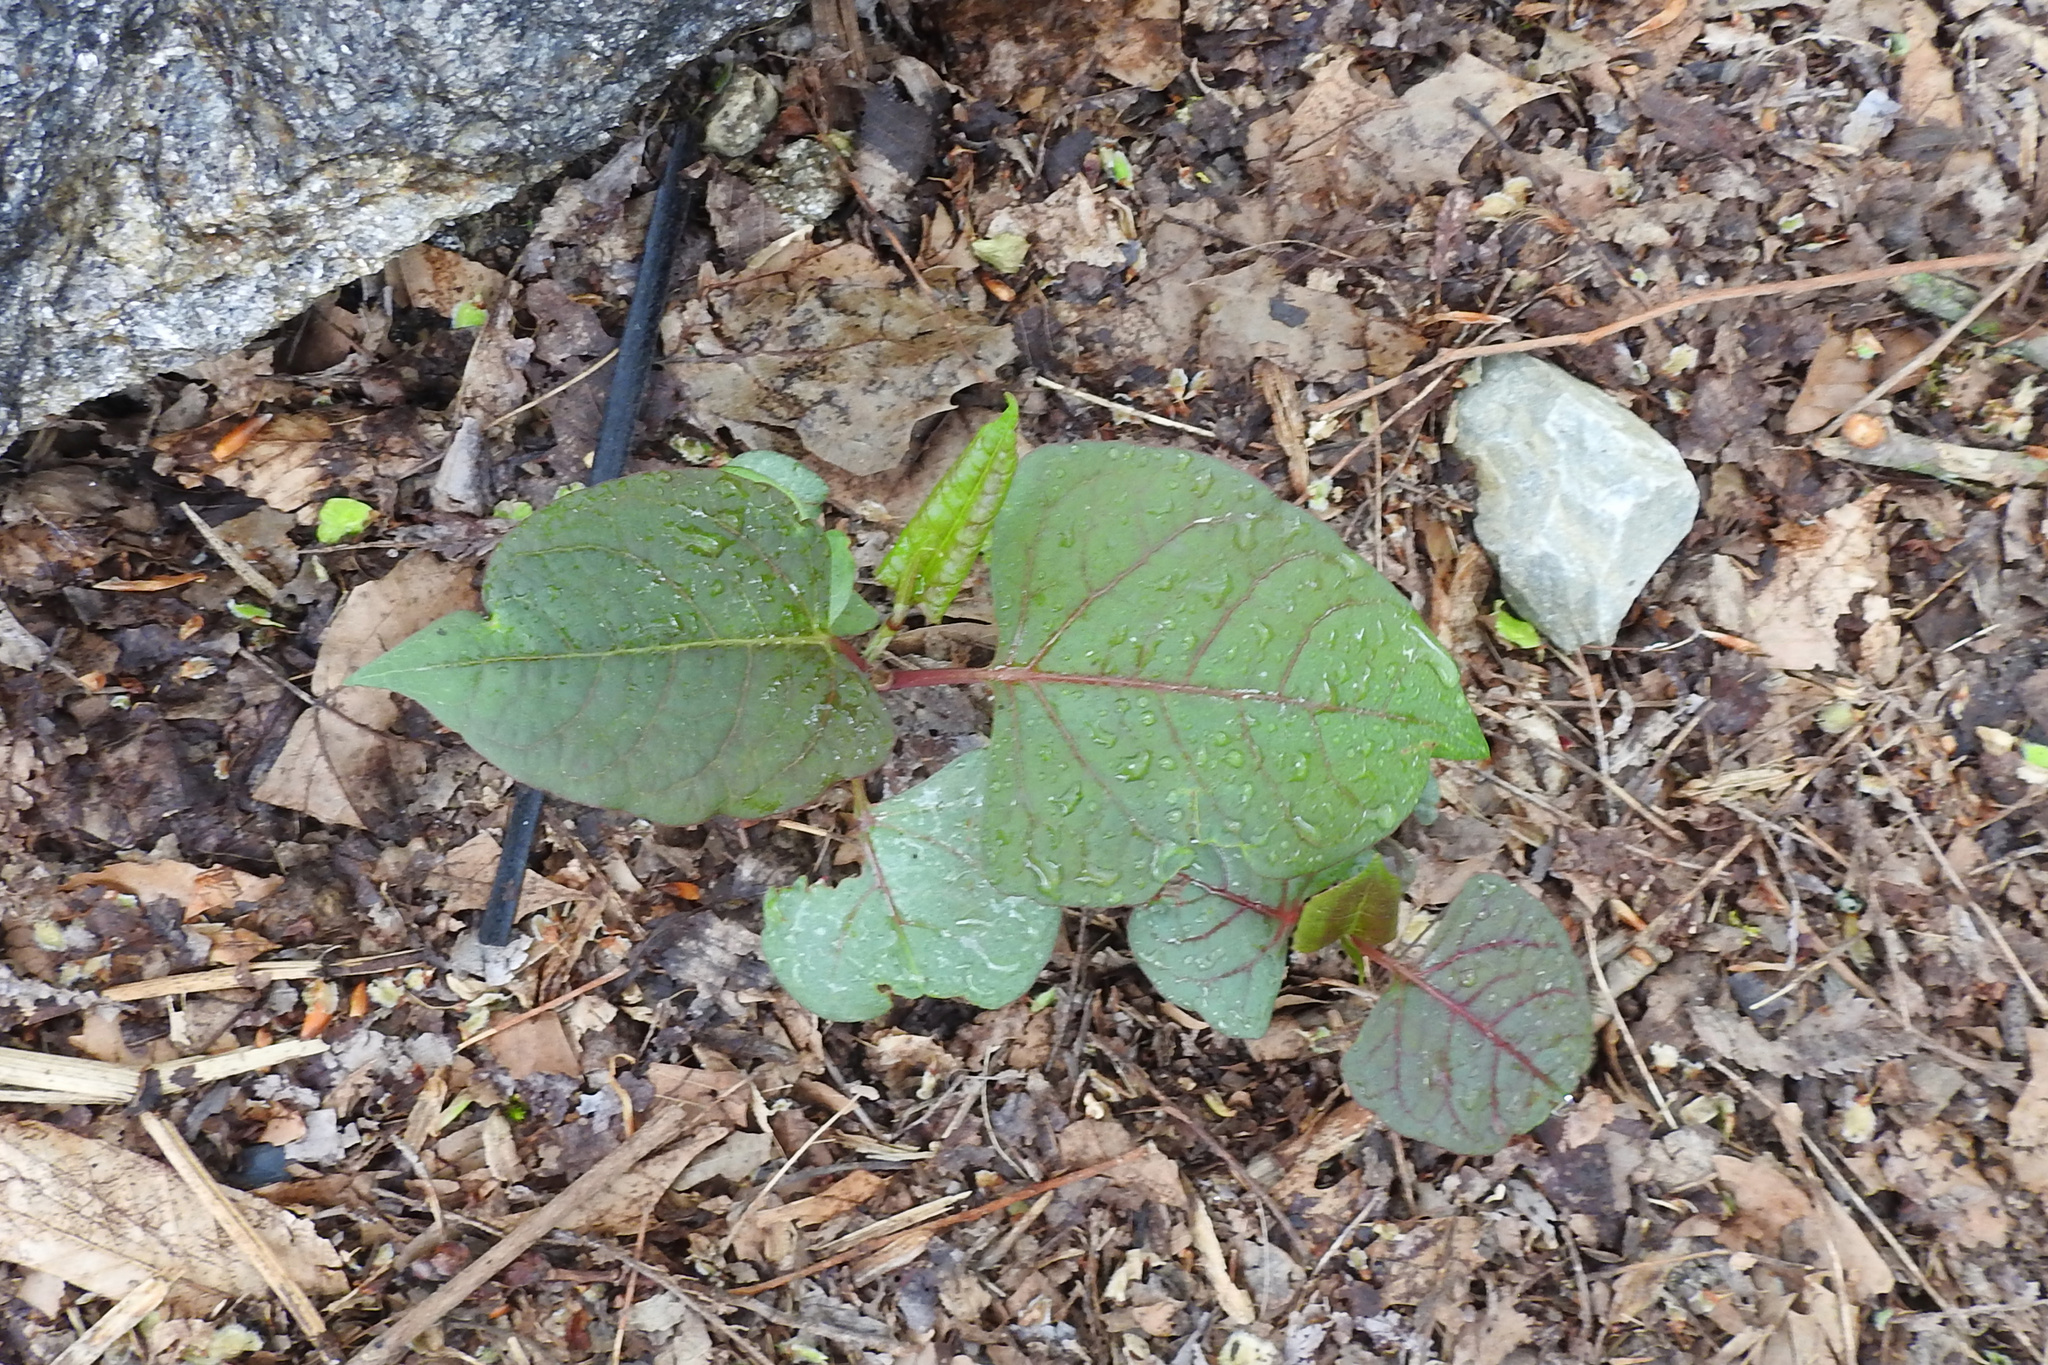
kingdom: Plantae
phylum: Tracheophyta
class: Magnoliopsida
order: Caryophyllales
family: Polygonaceae
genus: Reynoutria
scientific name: Reynoutria japonica
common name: Japanese knotweed
